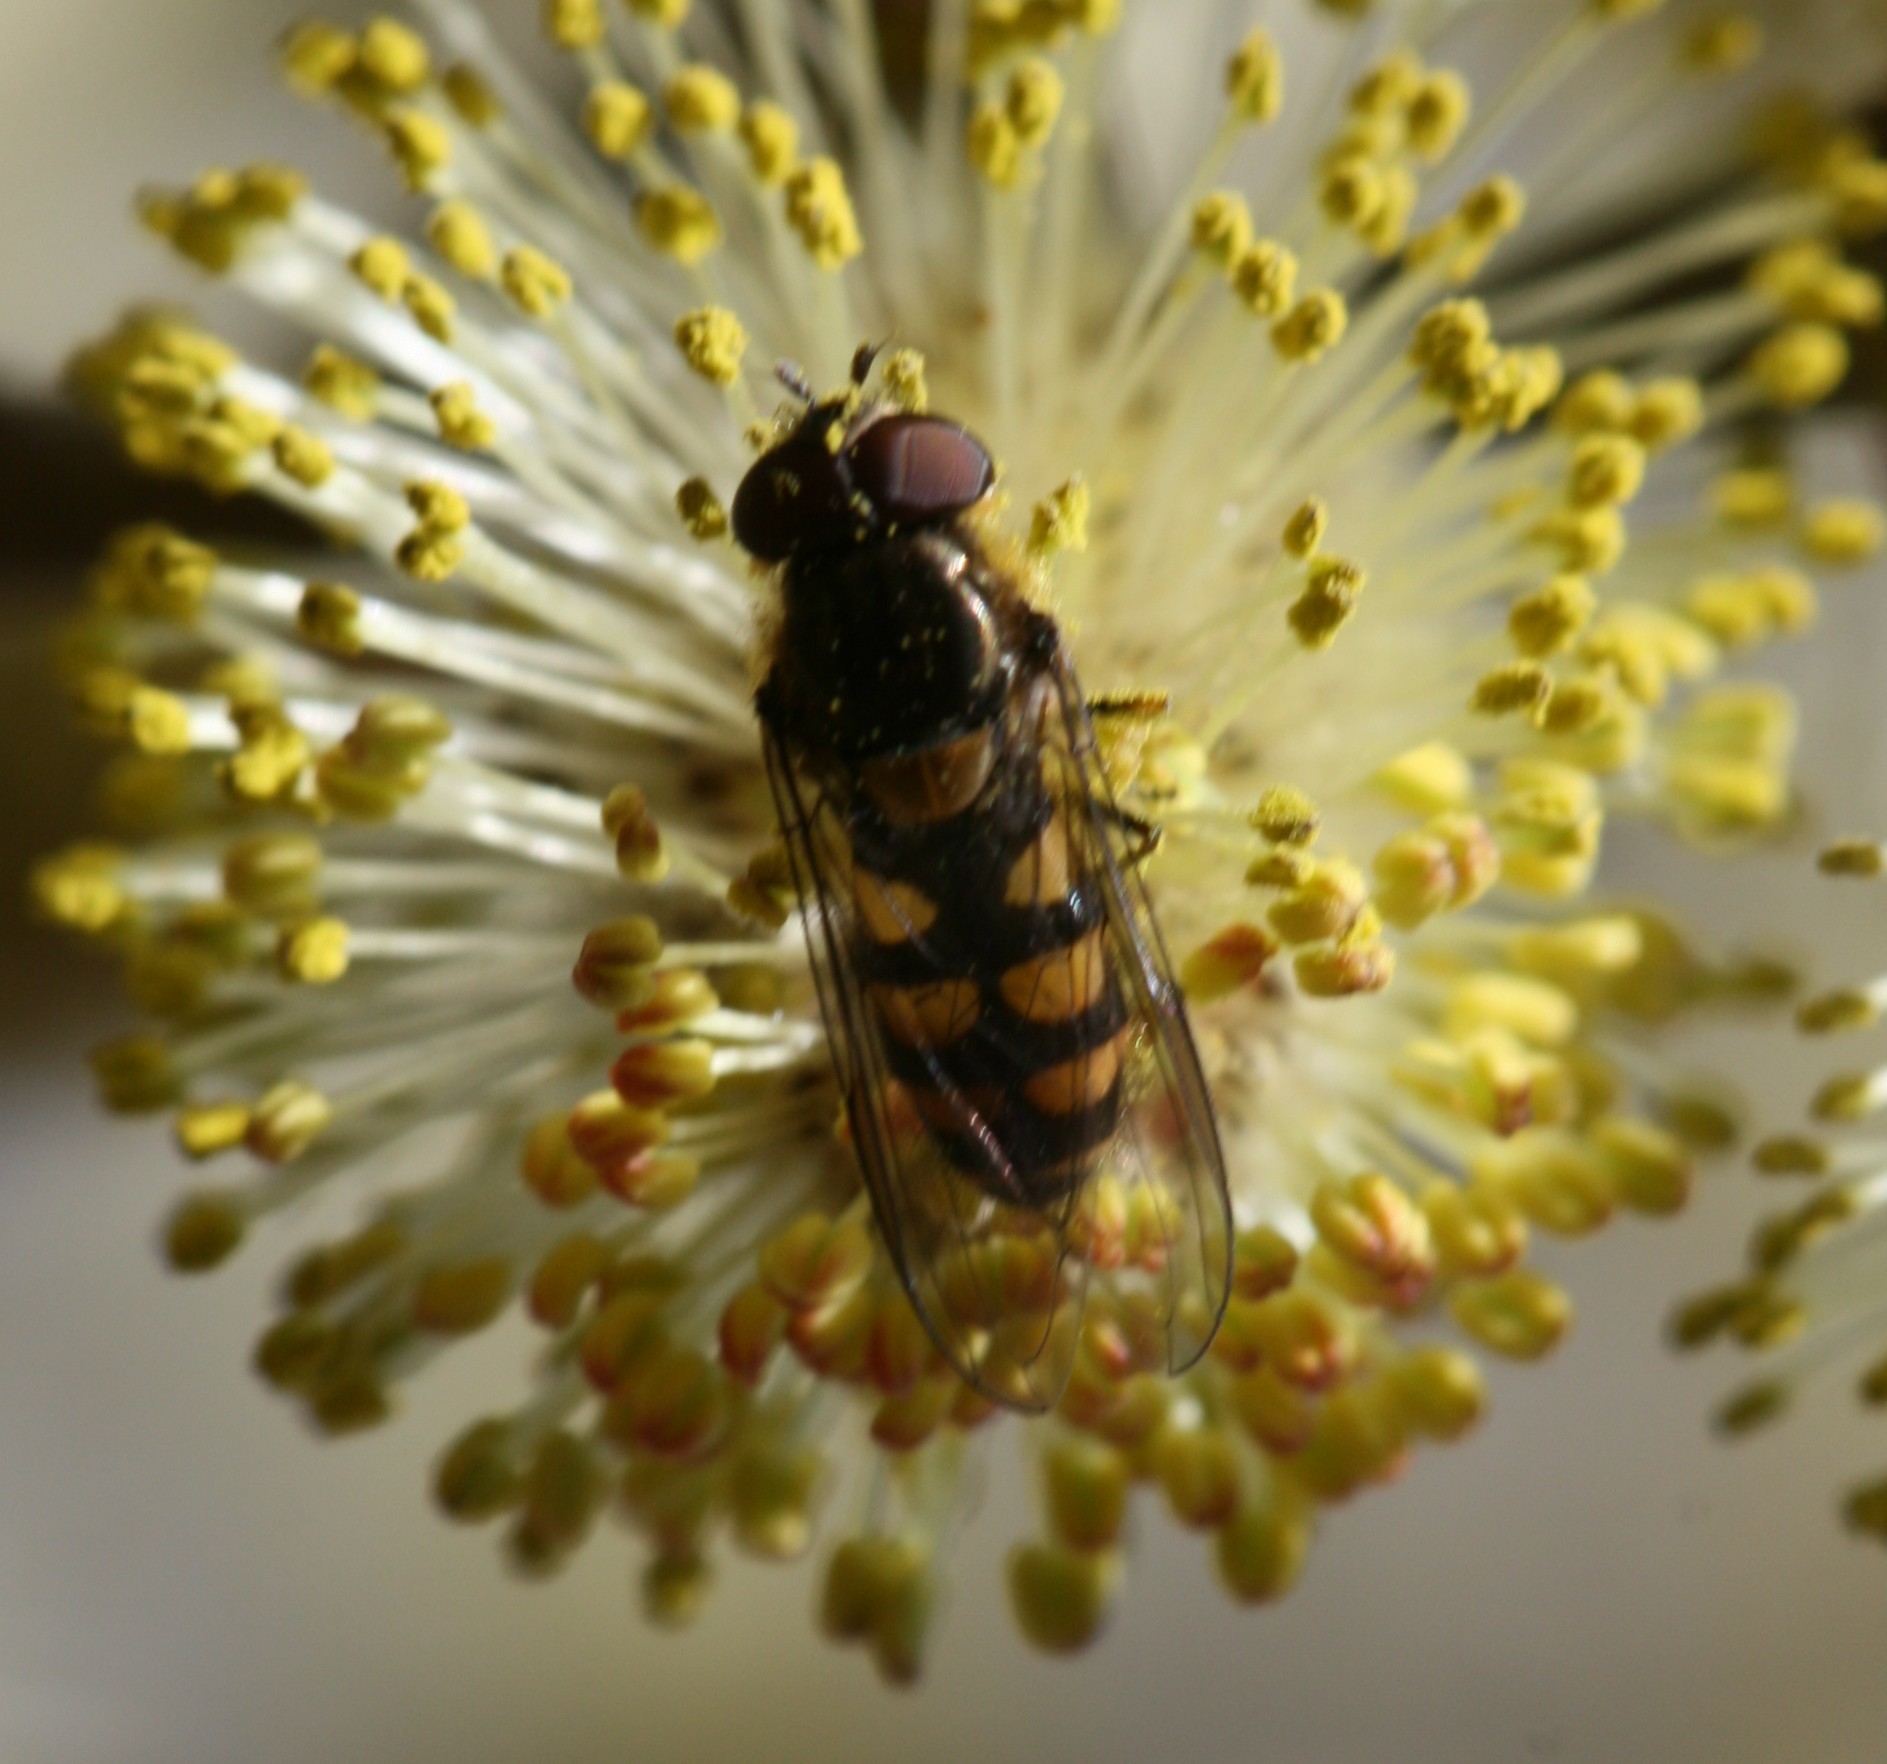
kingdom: Animalia
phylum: Arthropoda
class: Insecta
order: Diptera
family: Syrphidae
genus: Parasyrphus
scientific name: Parasyrphus punctulatus
